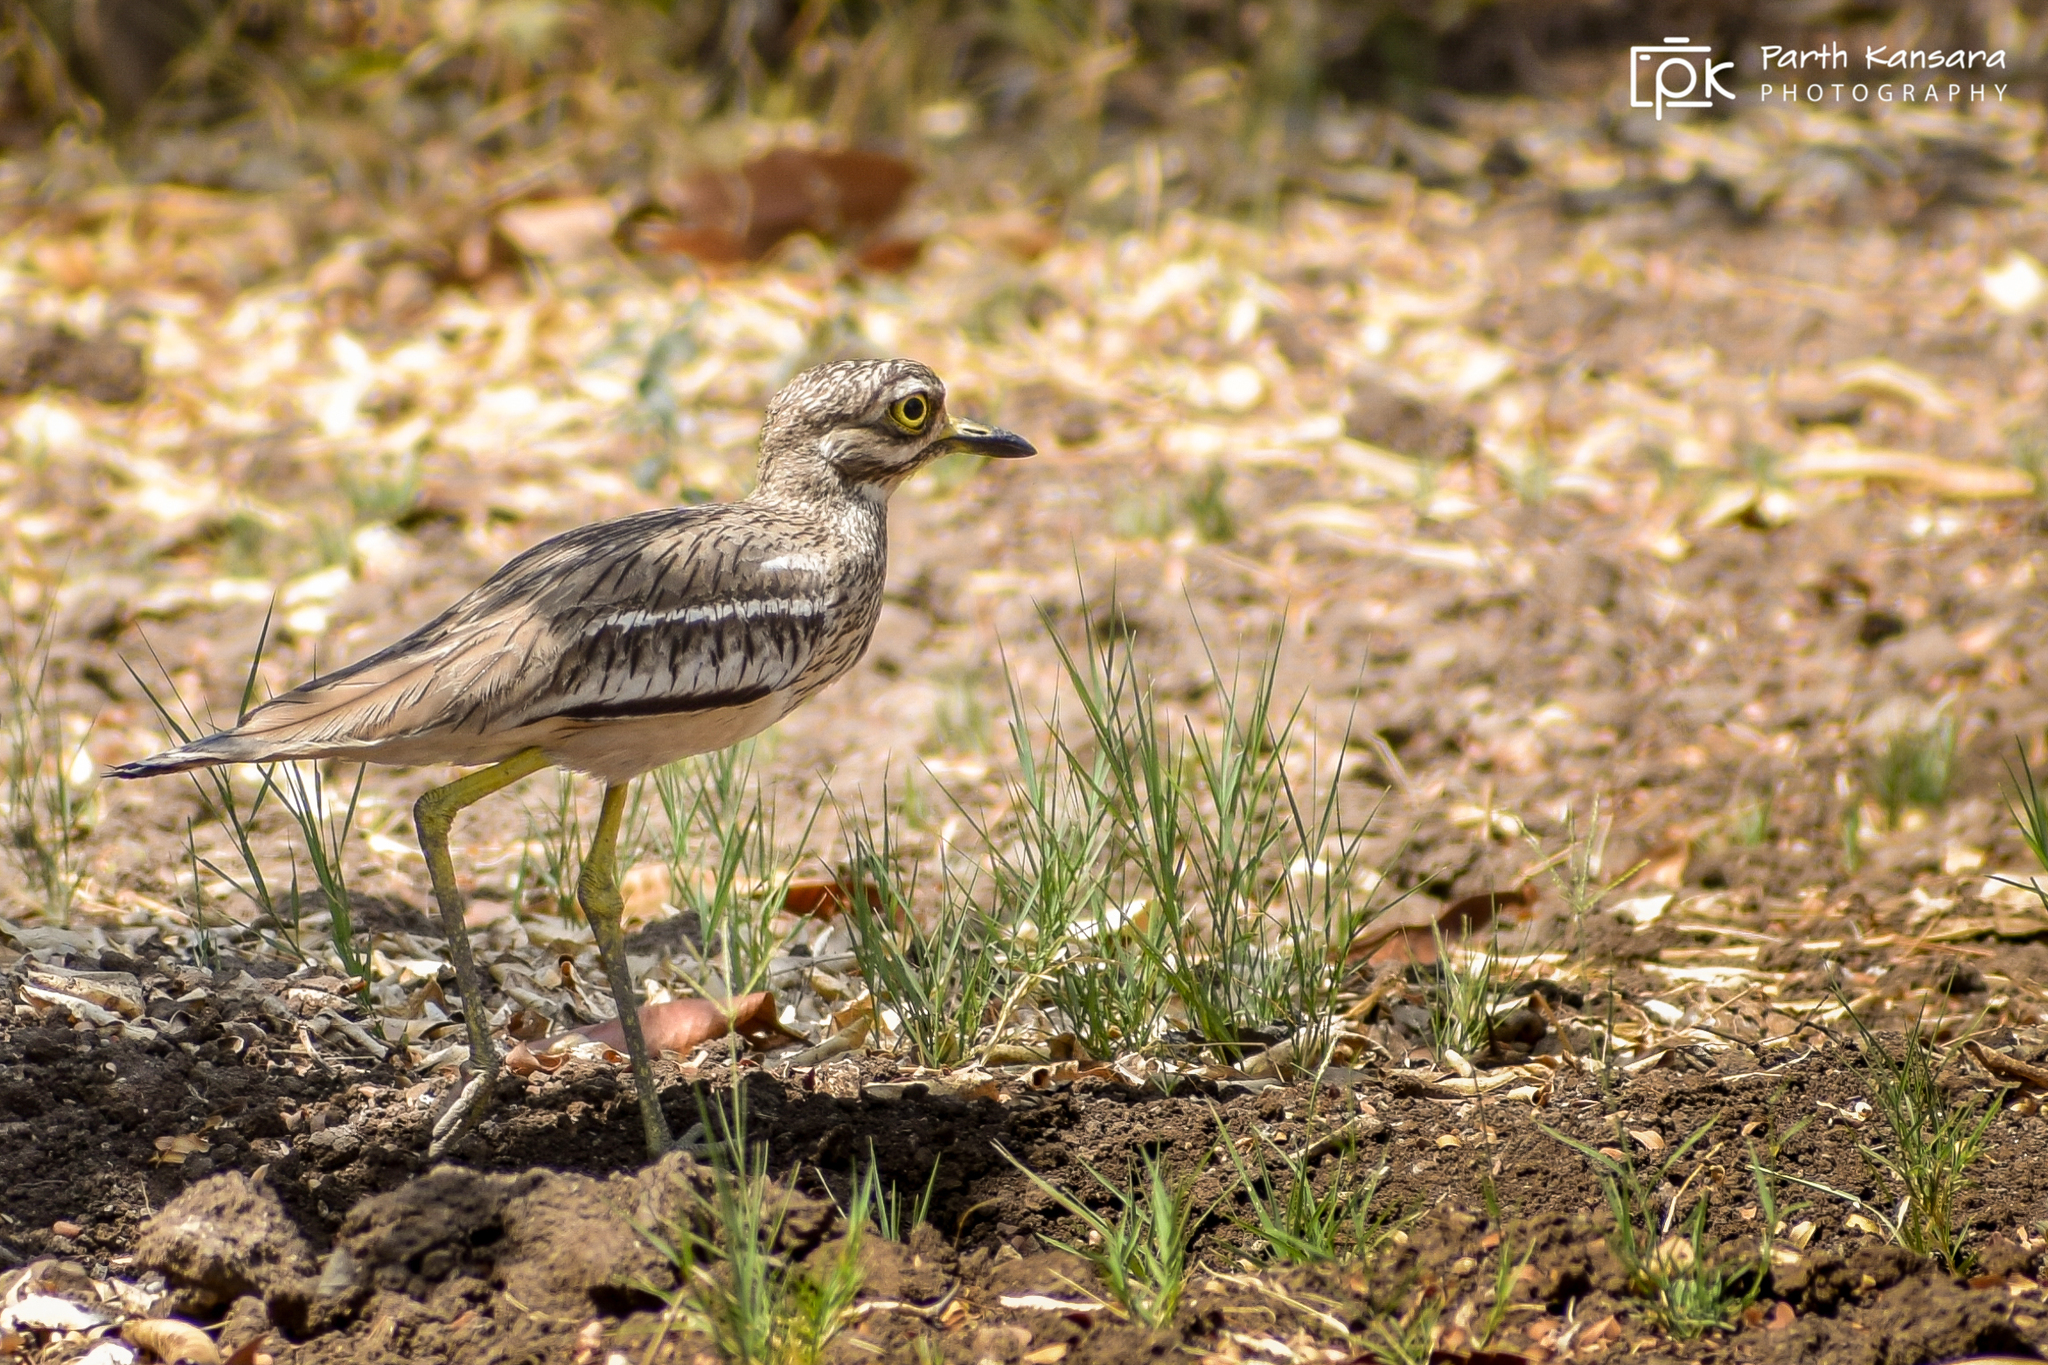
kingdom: Animalia
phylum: Chordata
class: Aves
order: Charadriiformes
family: Burhinidae
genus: Burhinus
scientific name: Burhinus indicus
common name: Indian thick-knee
